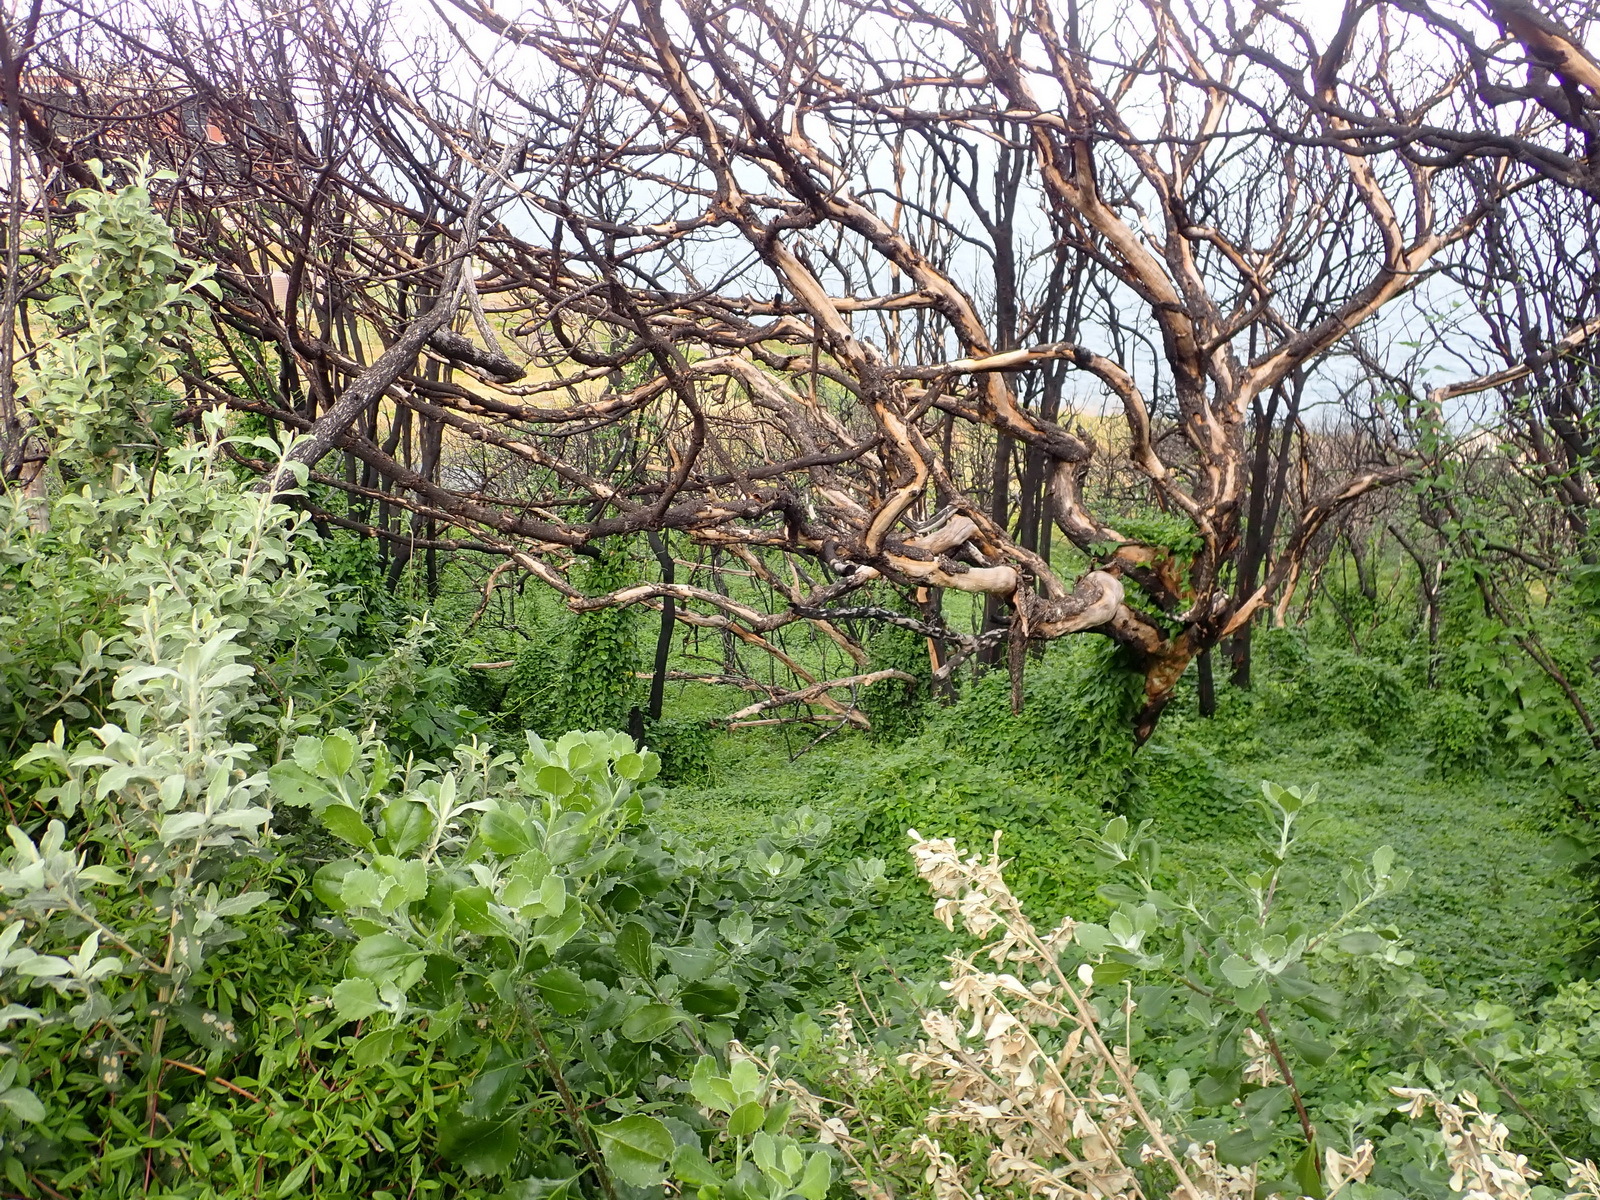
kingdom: Plantae
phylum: Tracheophyta
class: Magnoliopsida
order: Fabales
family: Fabaceae
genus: Dipogon
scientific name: Dipogon lignosus
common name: Okie bean
